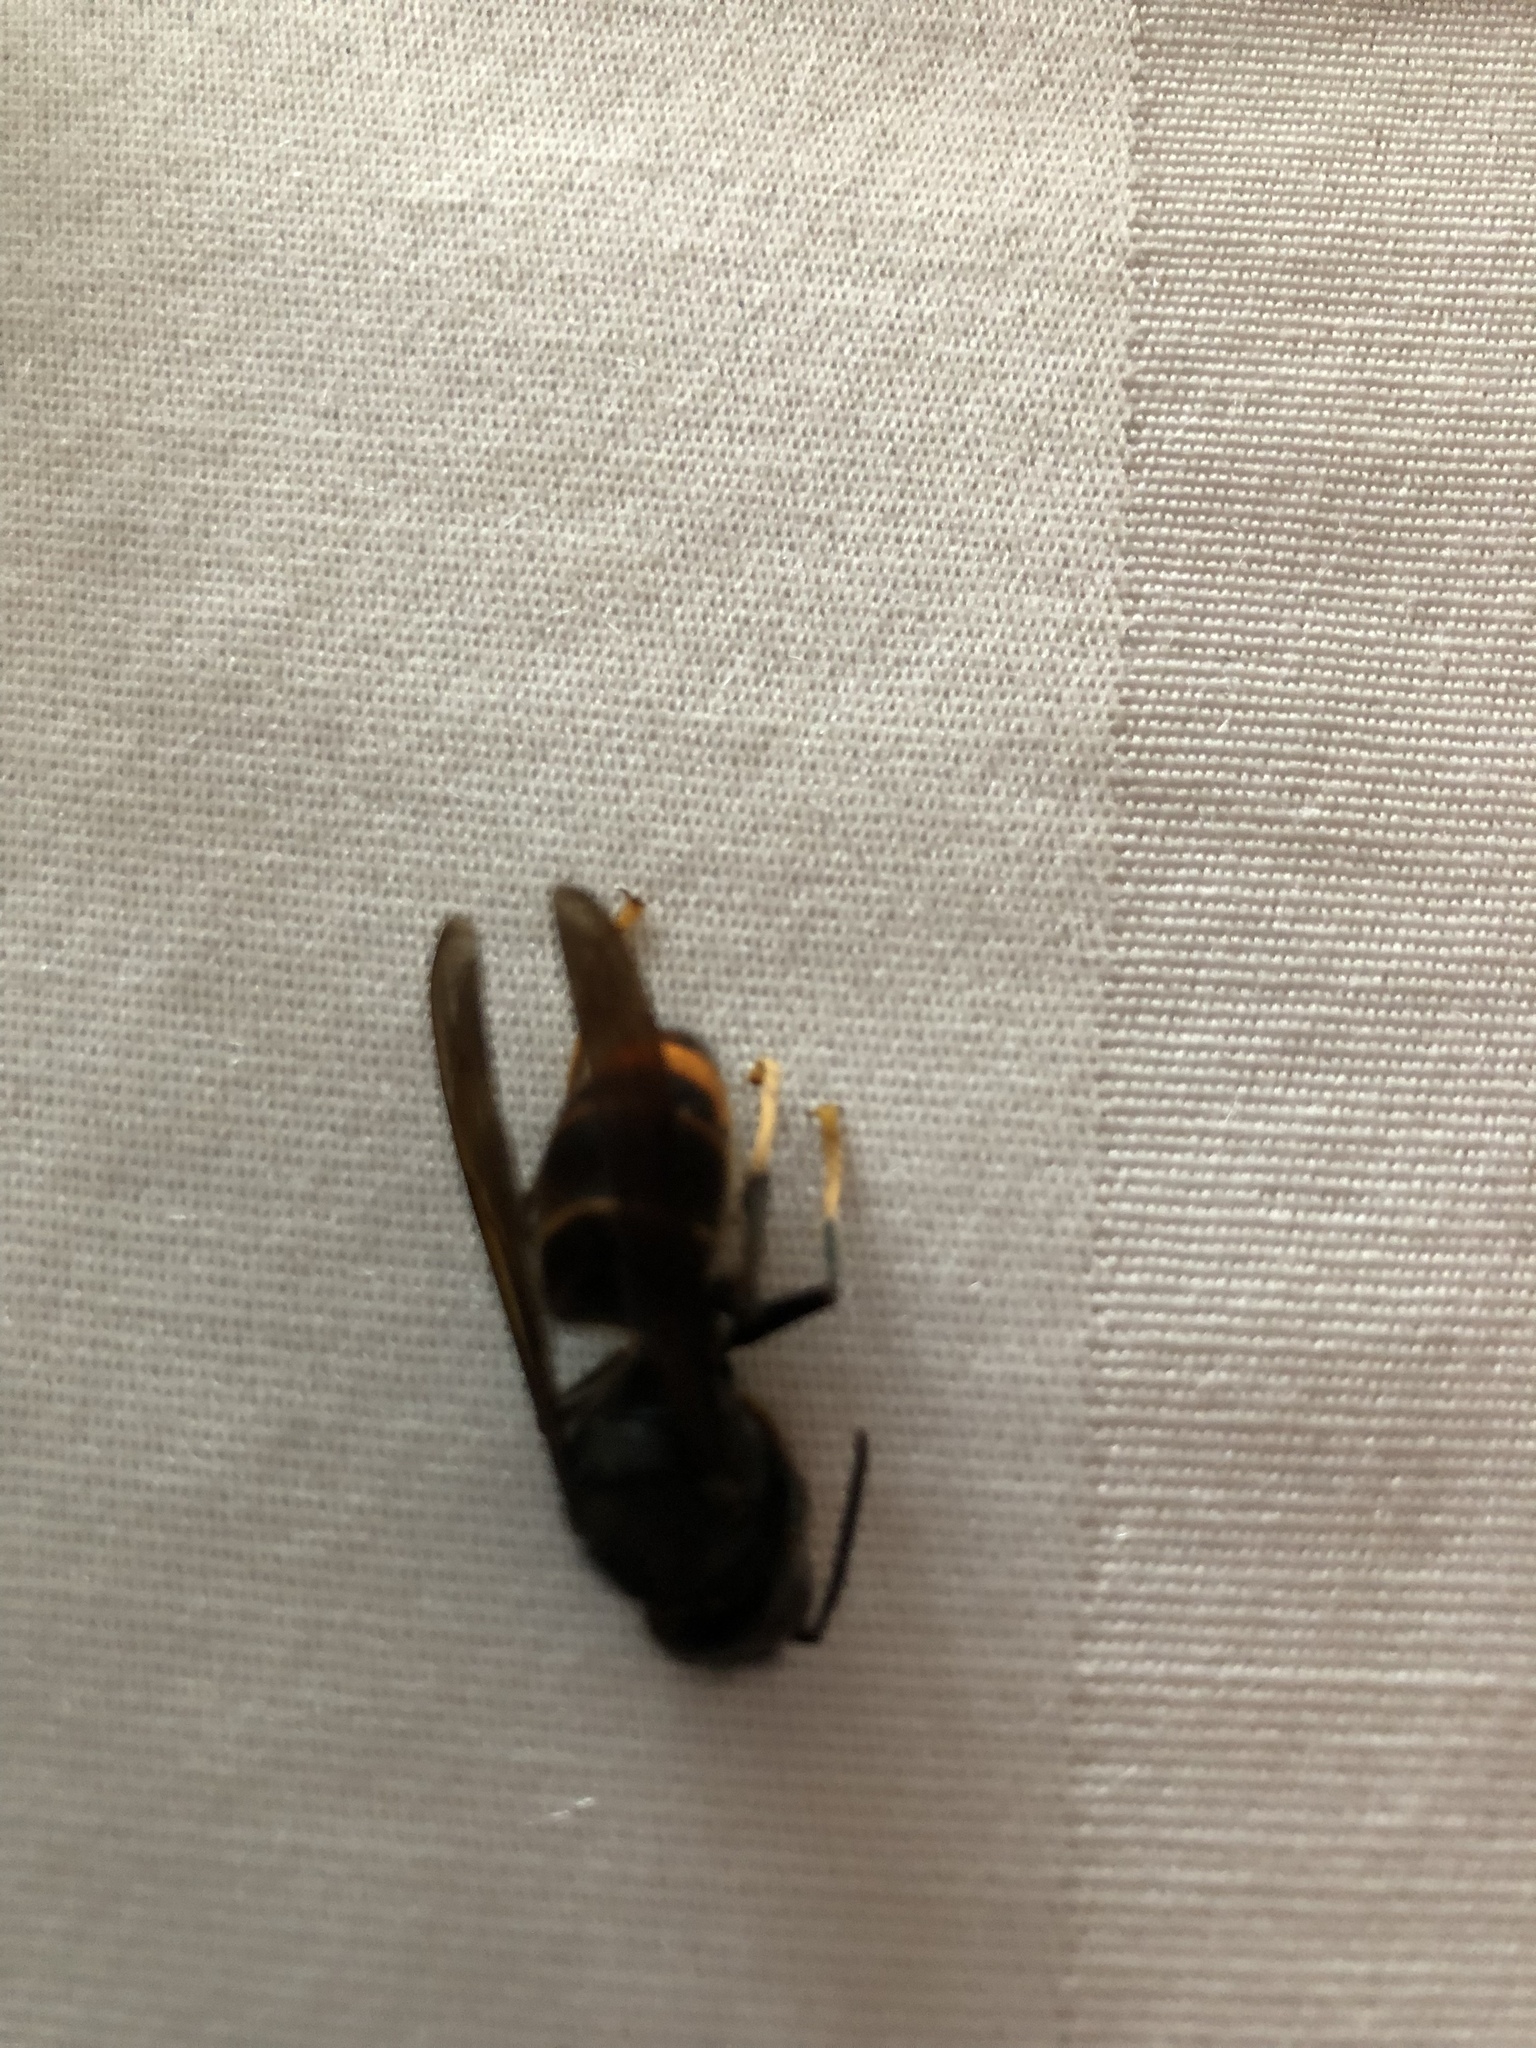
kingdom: Animalia
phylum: Arthropoda
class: Insecta
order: Hymenoptera
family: Vespidae
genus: Vespa
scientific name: Vespa velutina
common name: Asian hornet
